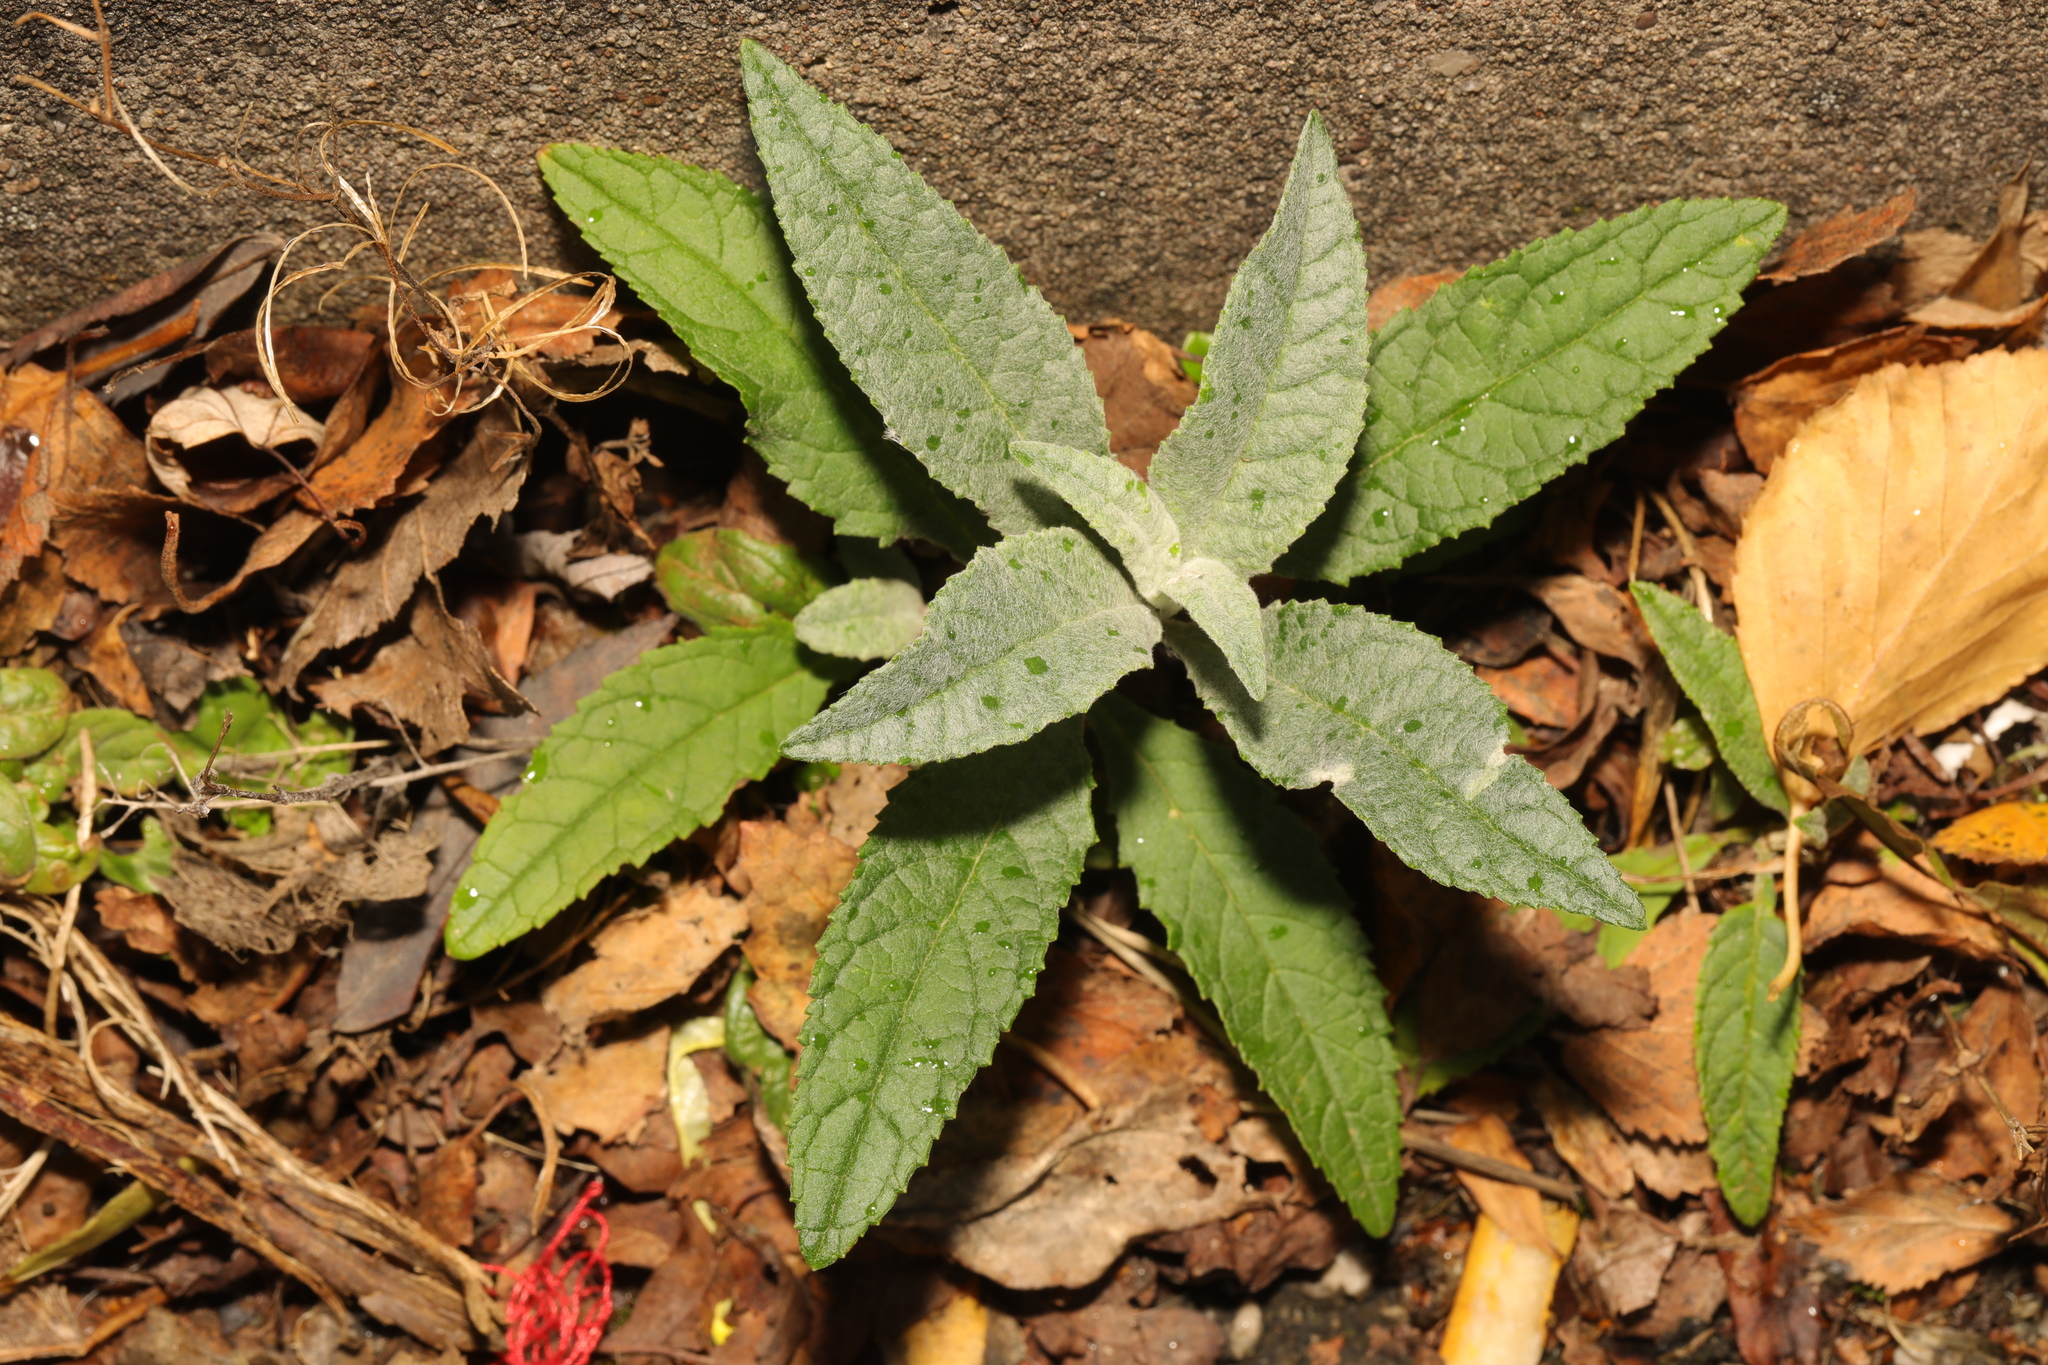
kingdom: Plantae
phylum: Tracheophyta
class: Magnoliopsida
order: Lamiales
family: Scrophulariaceae
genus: Buddleja
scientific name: Buddleja davidii
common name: Butterfly-bush
